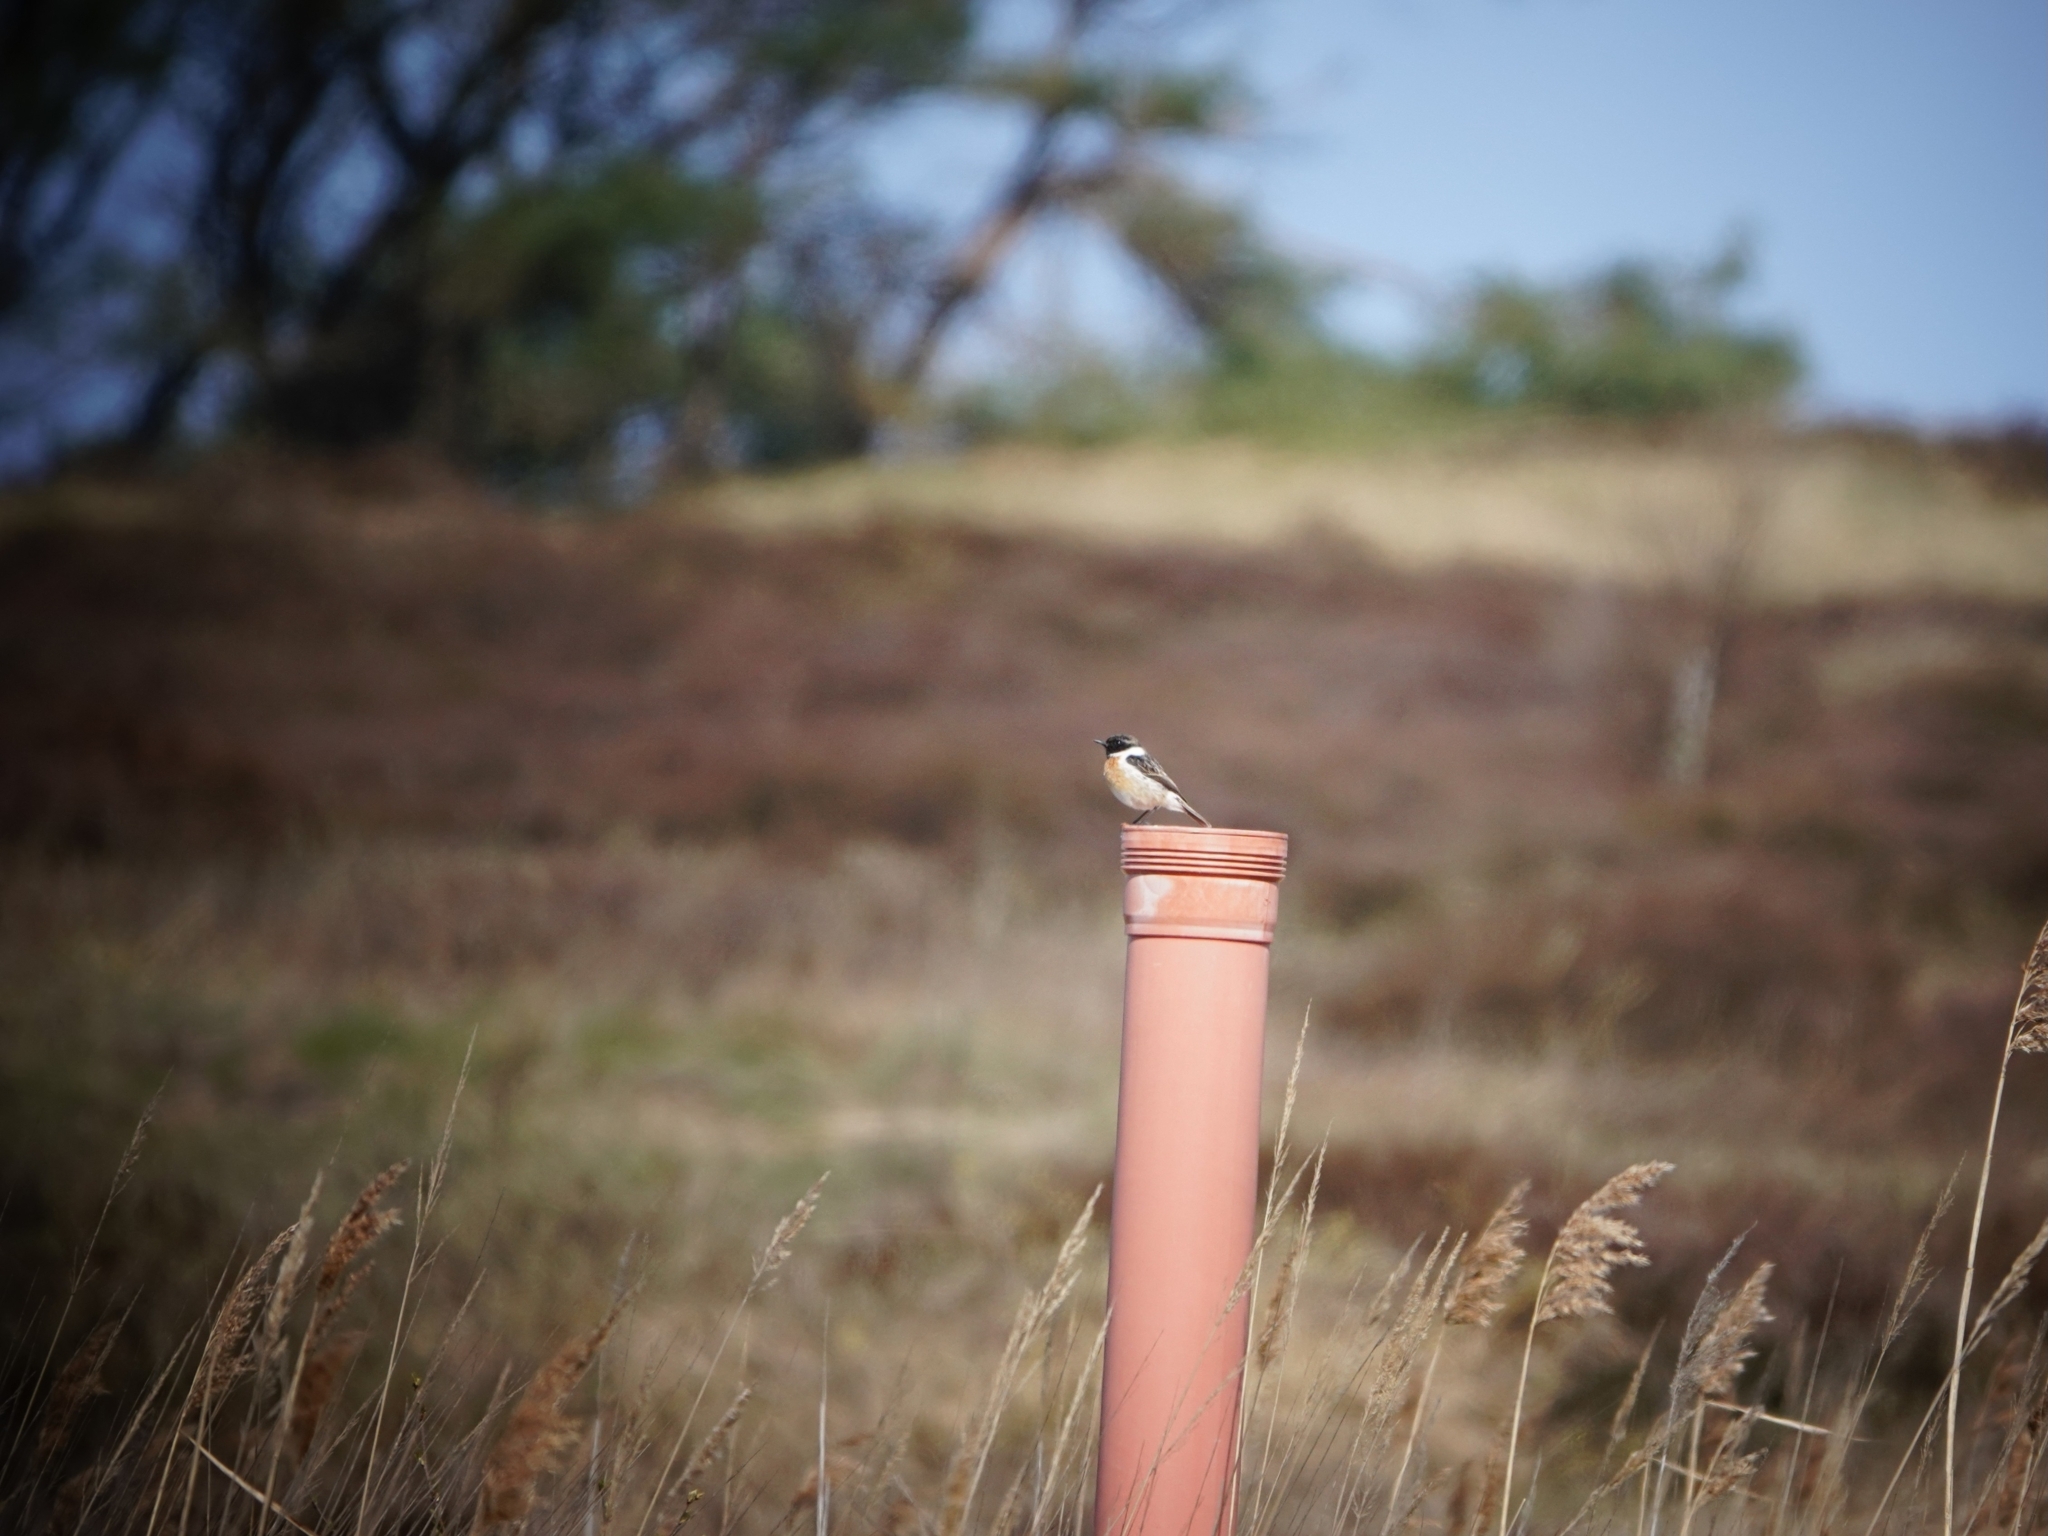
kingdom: Animalia
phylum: Chordata
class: Aves
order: Passeriformes
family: Muscicapidae
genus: Saxicola
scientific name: Saxicola rubicola
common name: European stonechat
